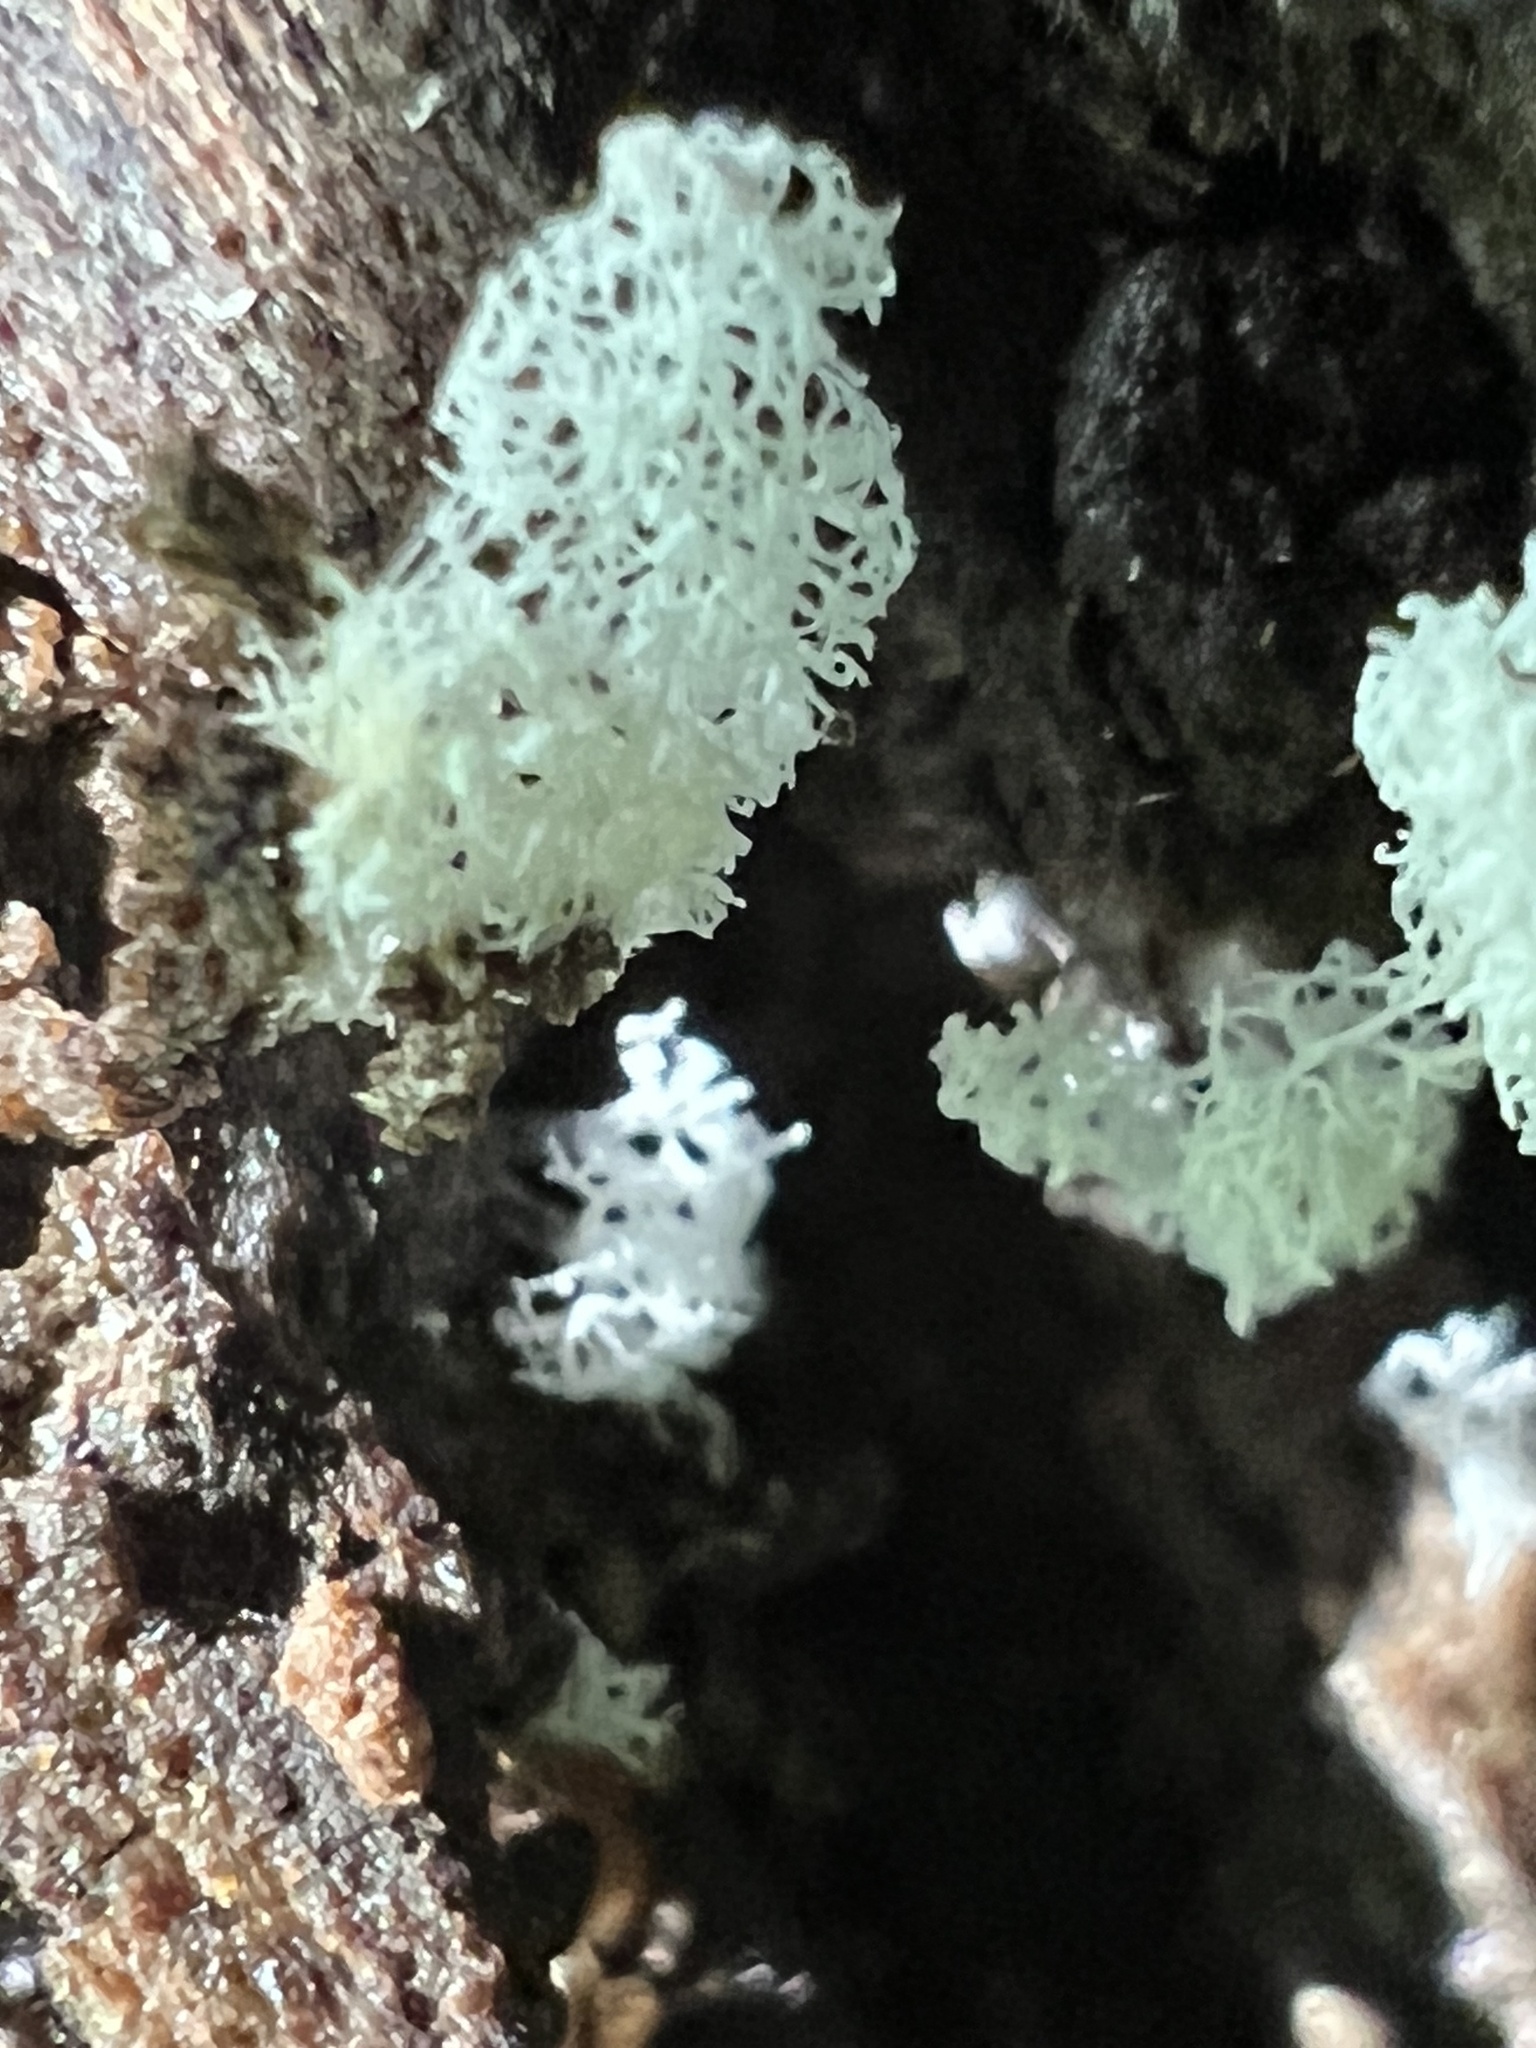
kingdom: Protozoa
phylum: Mycetozoa
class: Protosteliomycetes
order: Ceratiomyxales
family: Ceratiomyxaceae
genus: Ceratiomyxa
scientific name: Ceratiomyxa fruticulosa
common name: Honeycomb coral slime mold
